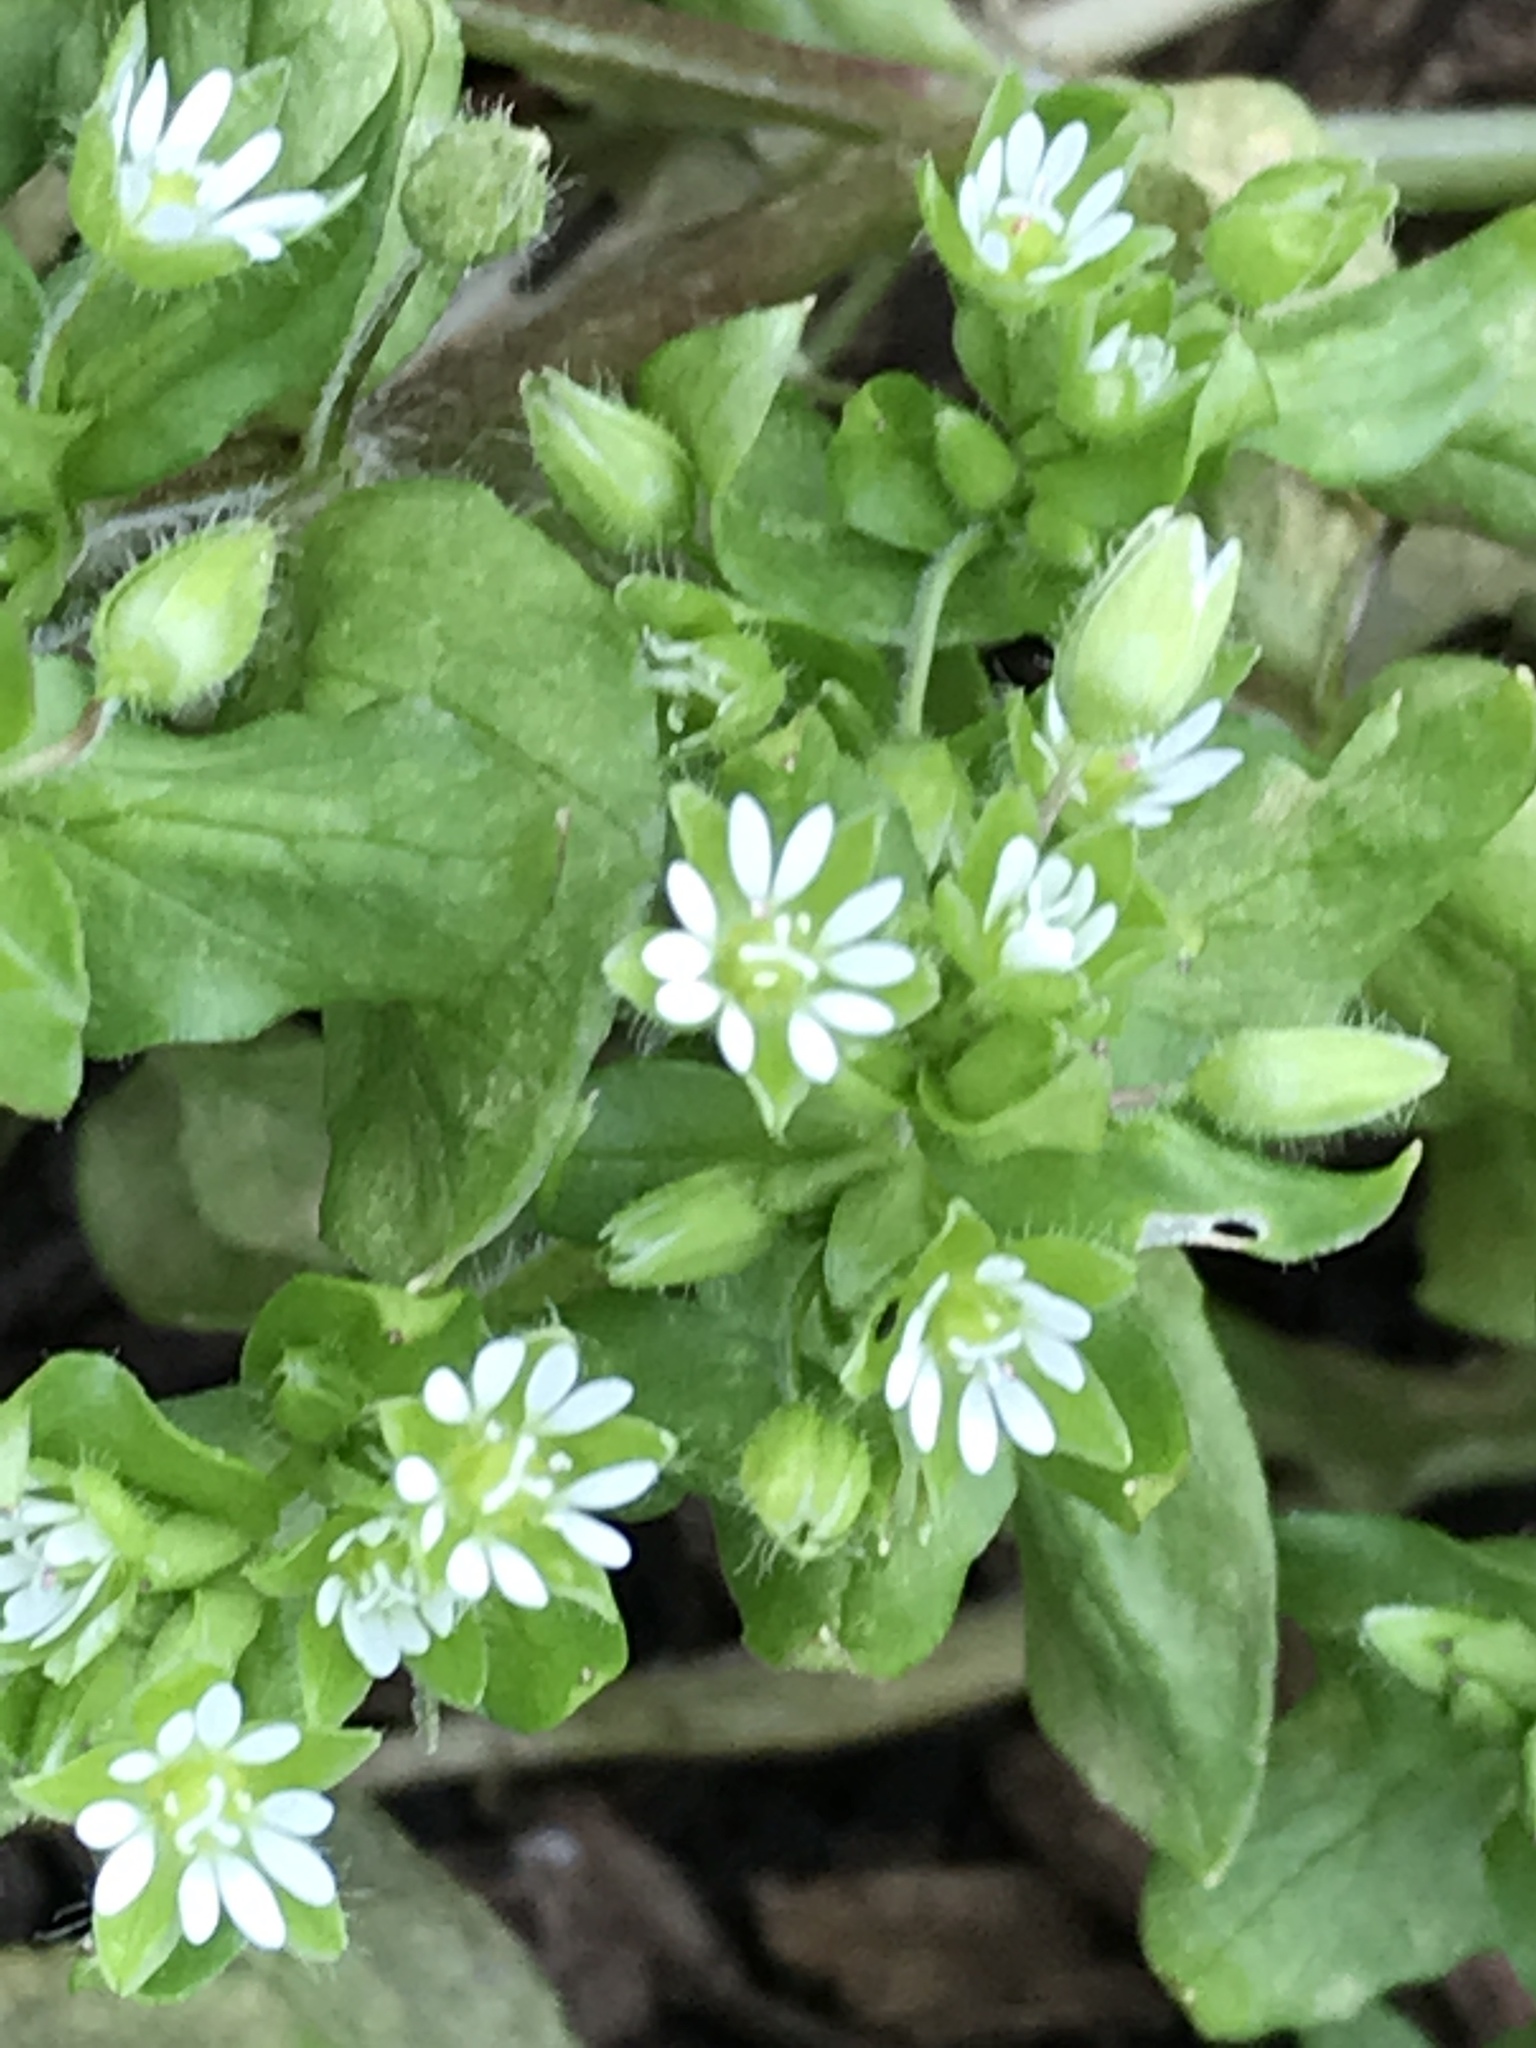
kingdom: Plantae
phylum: Tracheophyta
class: Magnoliopsida
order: Caryophyllales
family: Caryophyllaceae
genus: Stellaria
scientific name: Stellaria media
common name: Common chickweed
